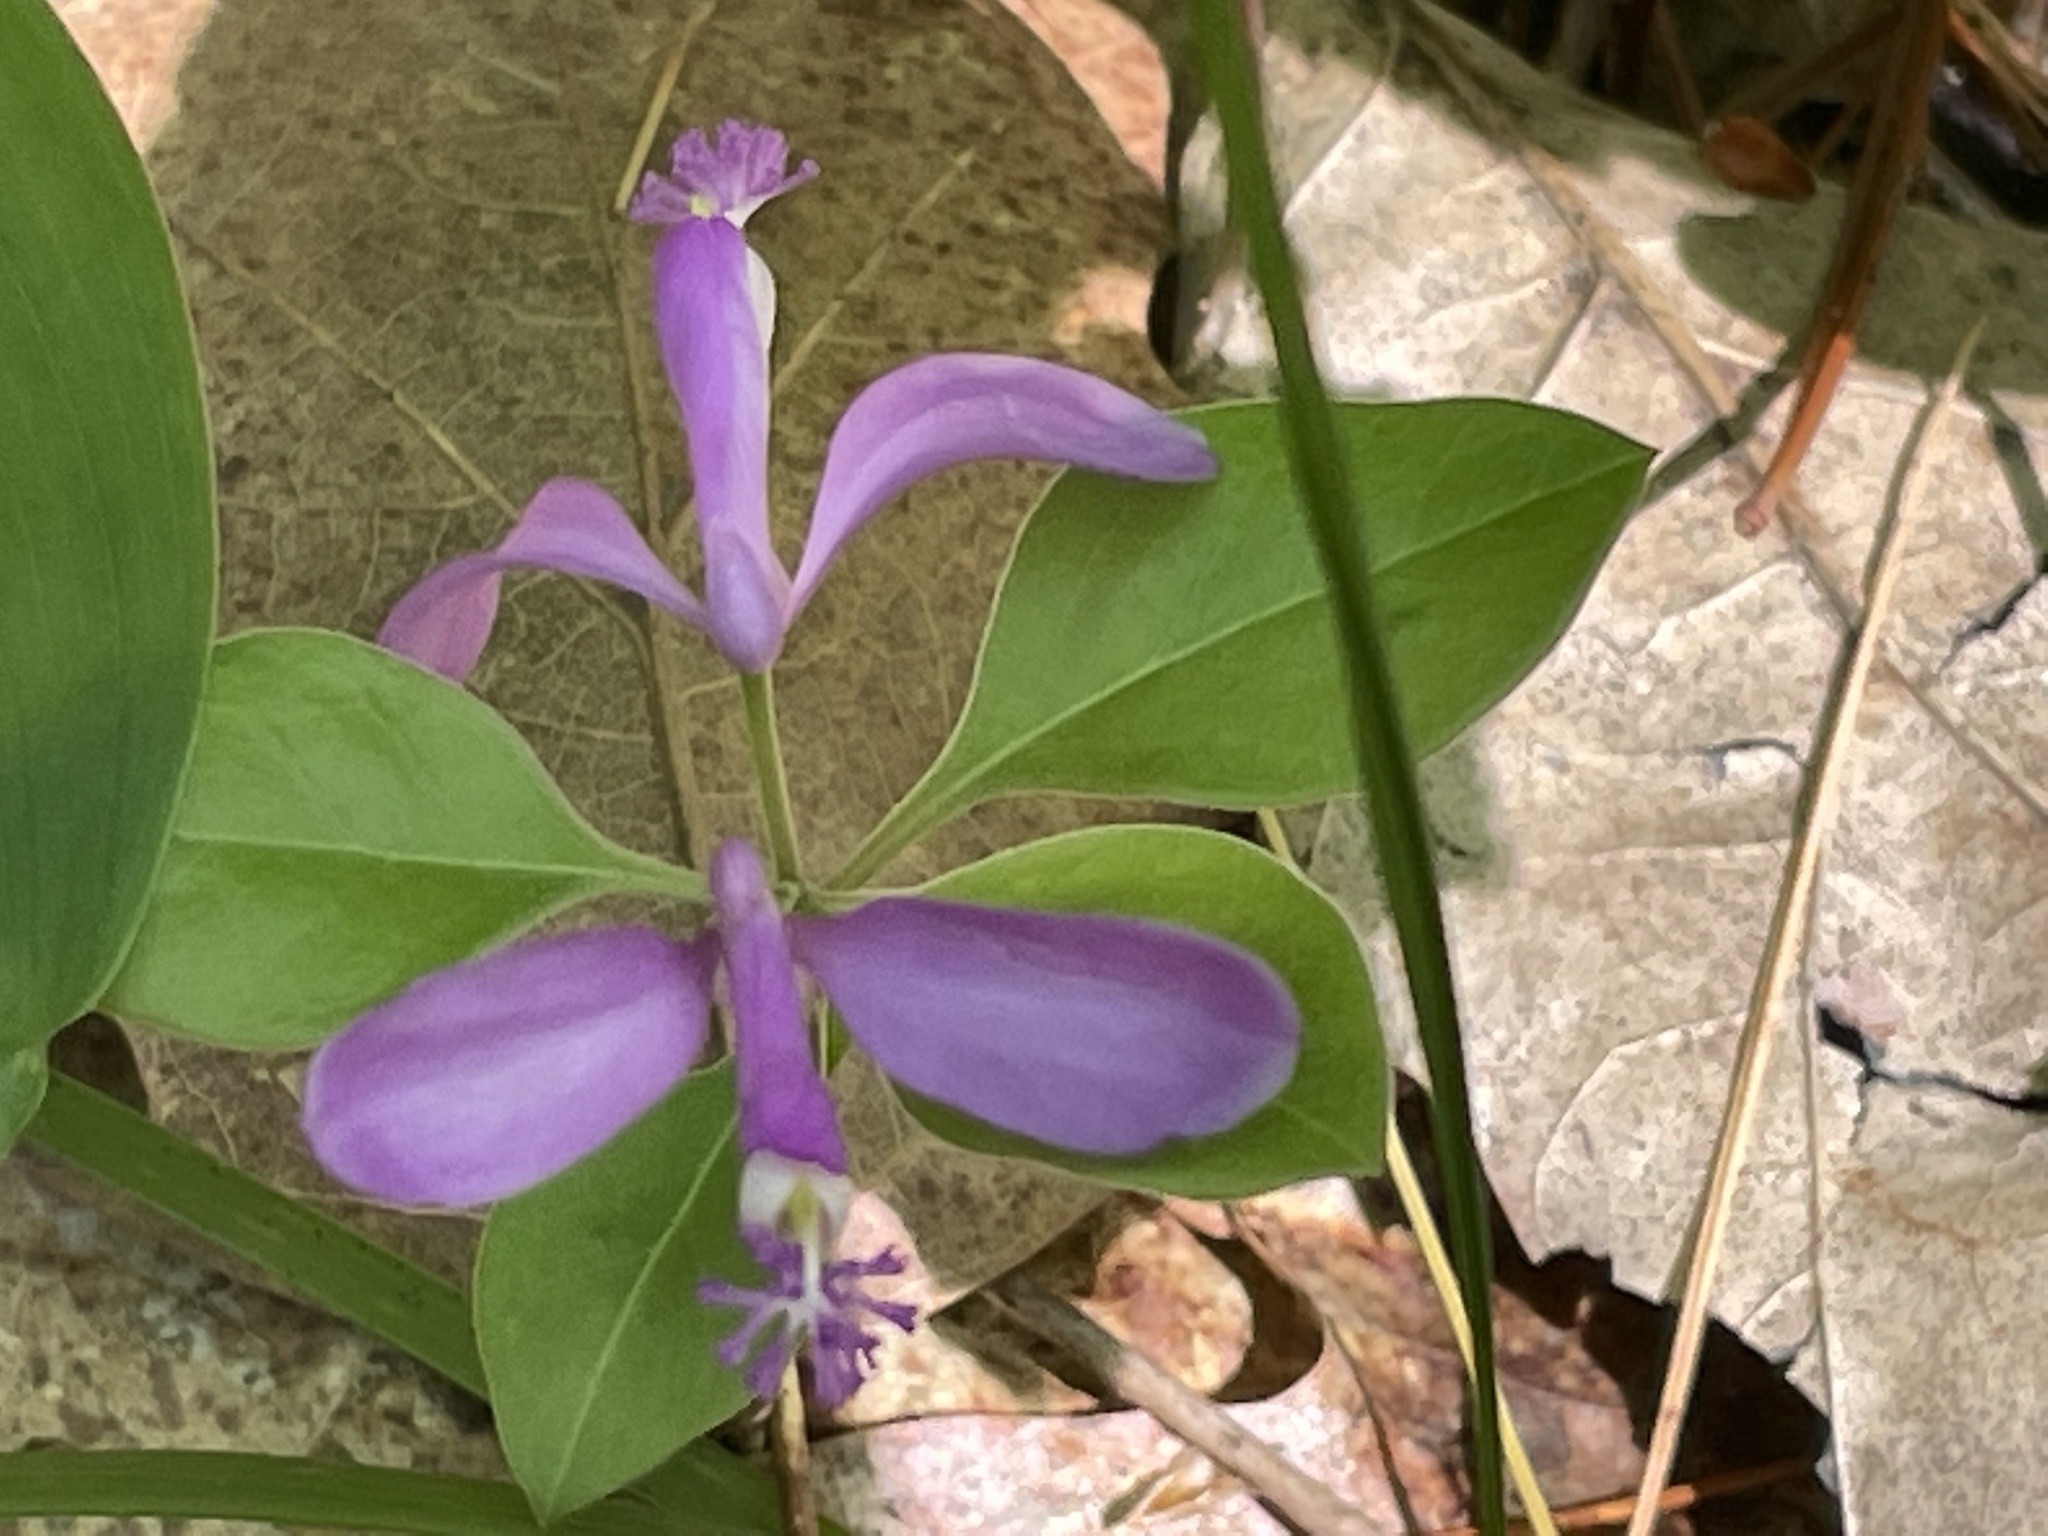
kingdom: Plantae
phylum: Tracheophyta
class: Magnoliopsida
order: Fabales
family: Polygalaceae
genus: Polygaloides
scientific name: Polygaloides paucifolia
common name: Bird-on-the-wing
